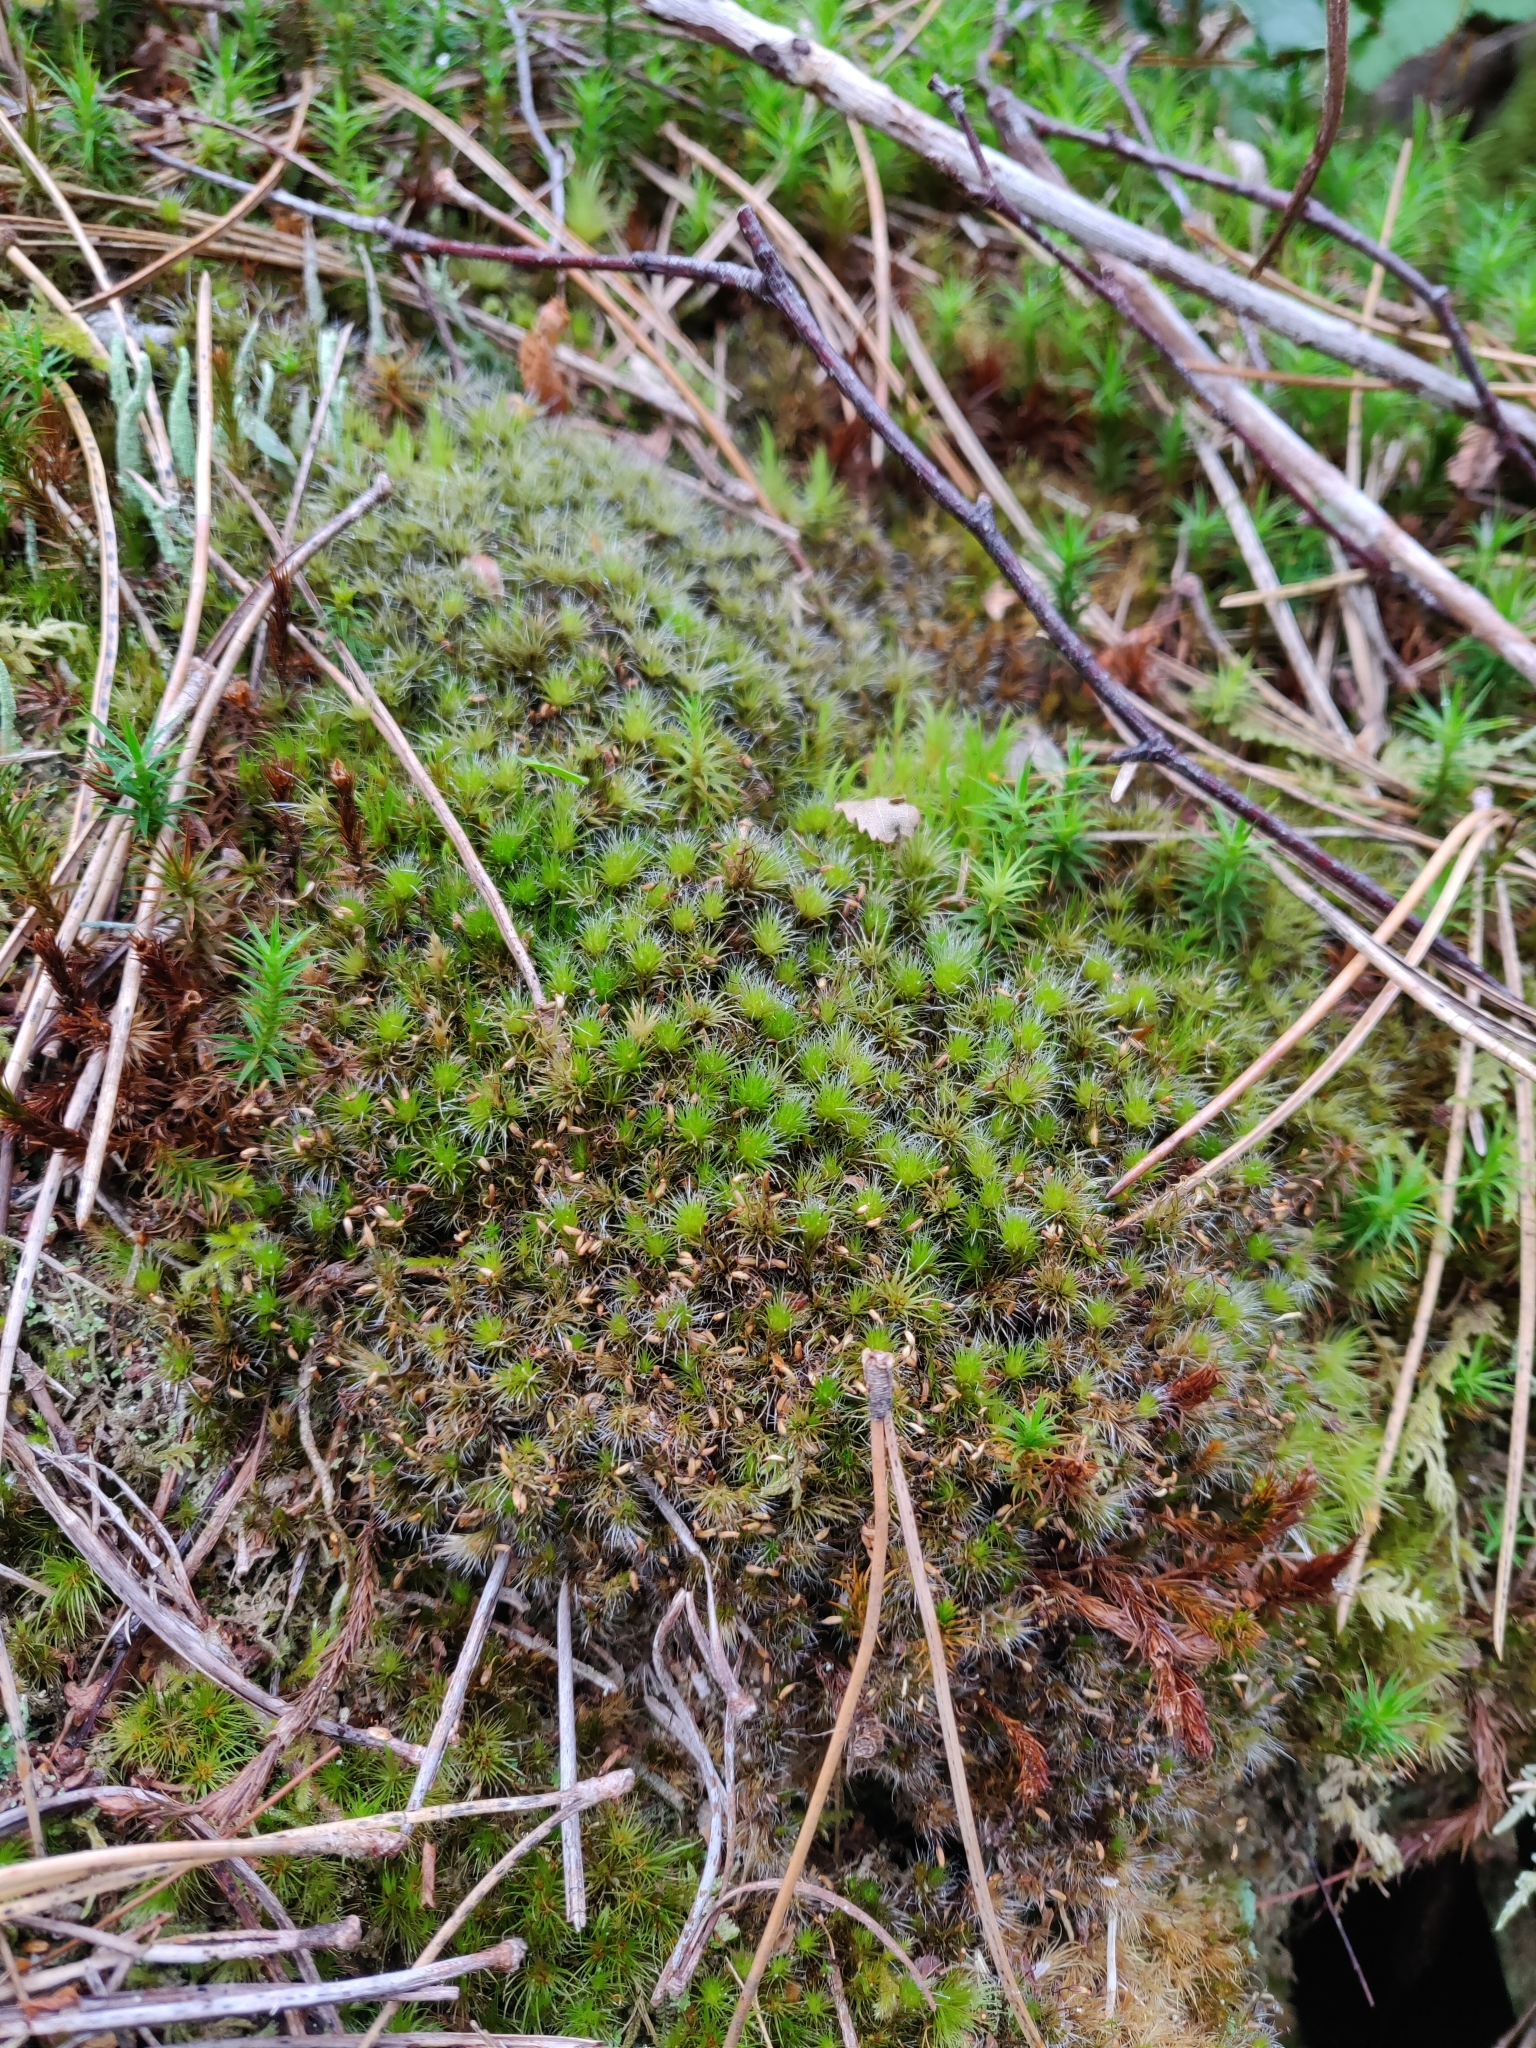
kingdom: Plantae
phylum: Bryophyta
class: Bryopsida
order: Dicranales
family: Leucobryaceae
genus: Campylopus
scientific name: Campylopus introflexus
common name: Heath star moss
